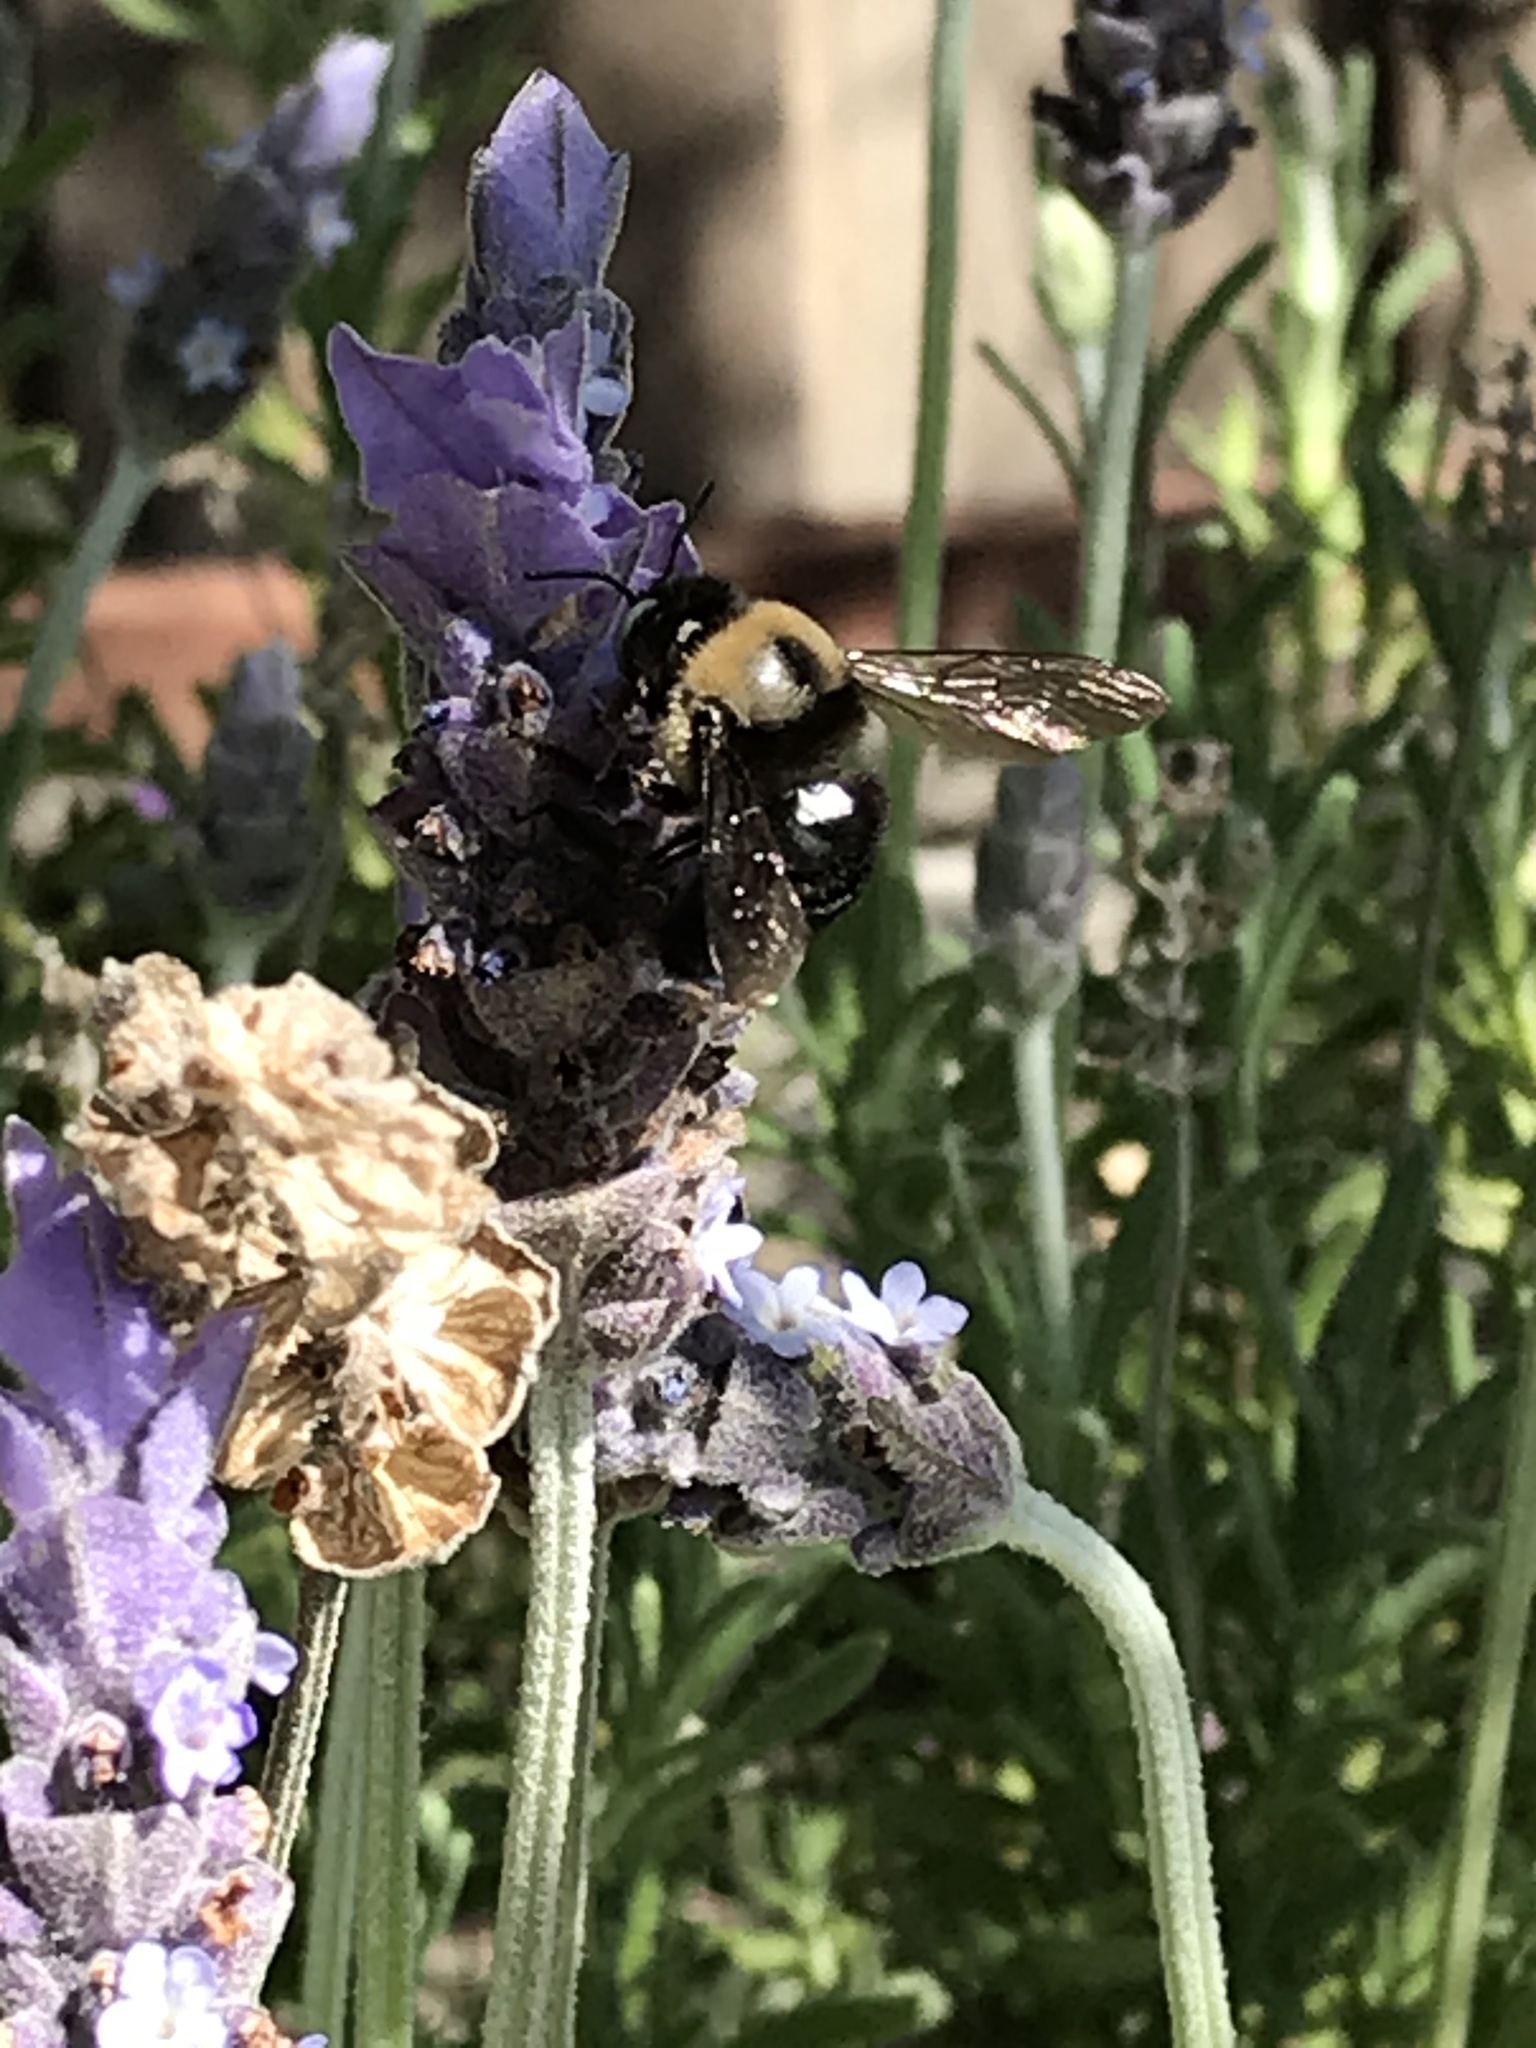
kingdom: Animalia
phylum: Arthropoda
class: Insecta
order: Hymenoptera
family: Apidae
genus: Xylocopa
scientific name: Xylocopa tabaniformis
